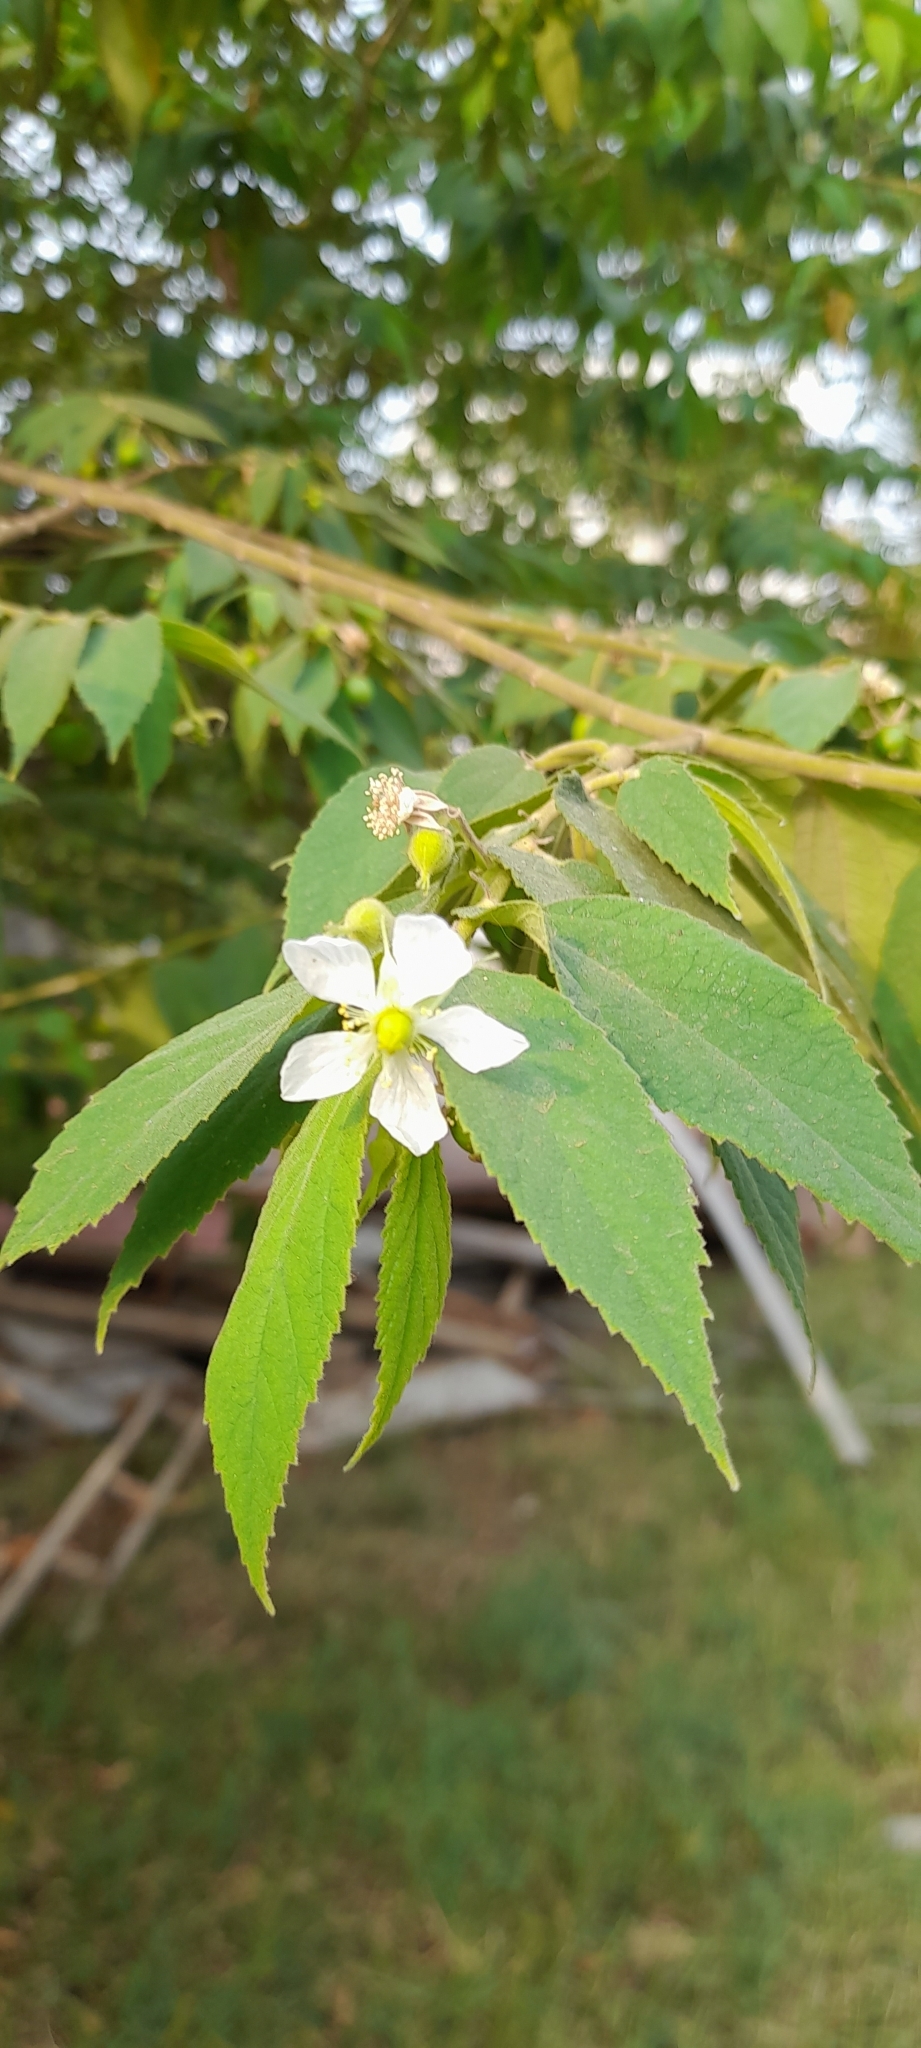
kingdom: Plantae
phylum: Tracheophyta
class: Magnoliopsida
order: Malvales
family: Muntingiaceae
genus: Muntingia
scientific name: Muntingia calabura
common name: Strawberrytree
